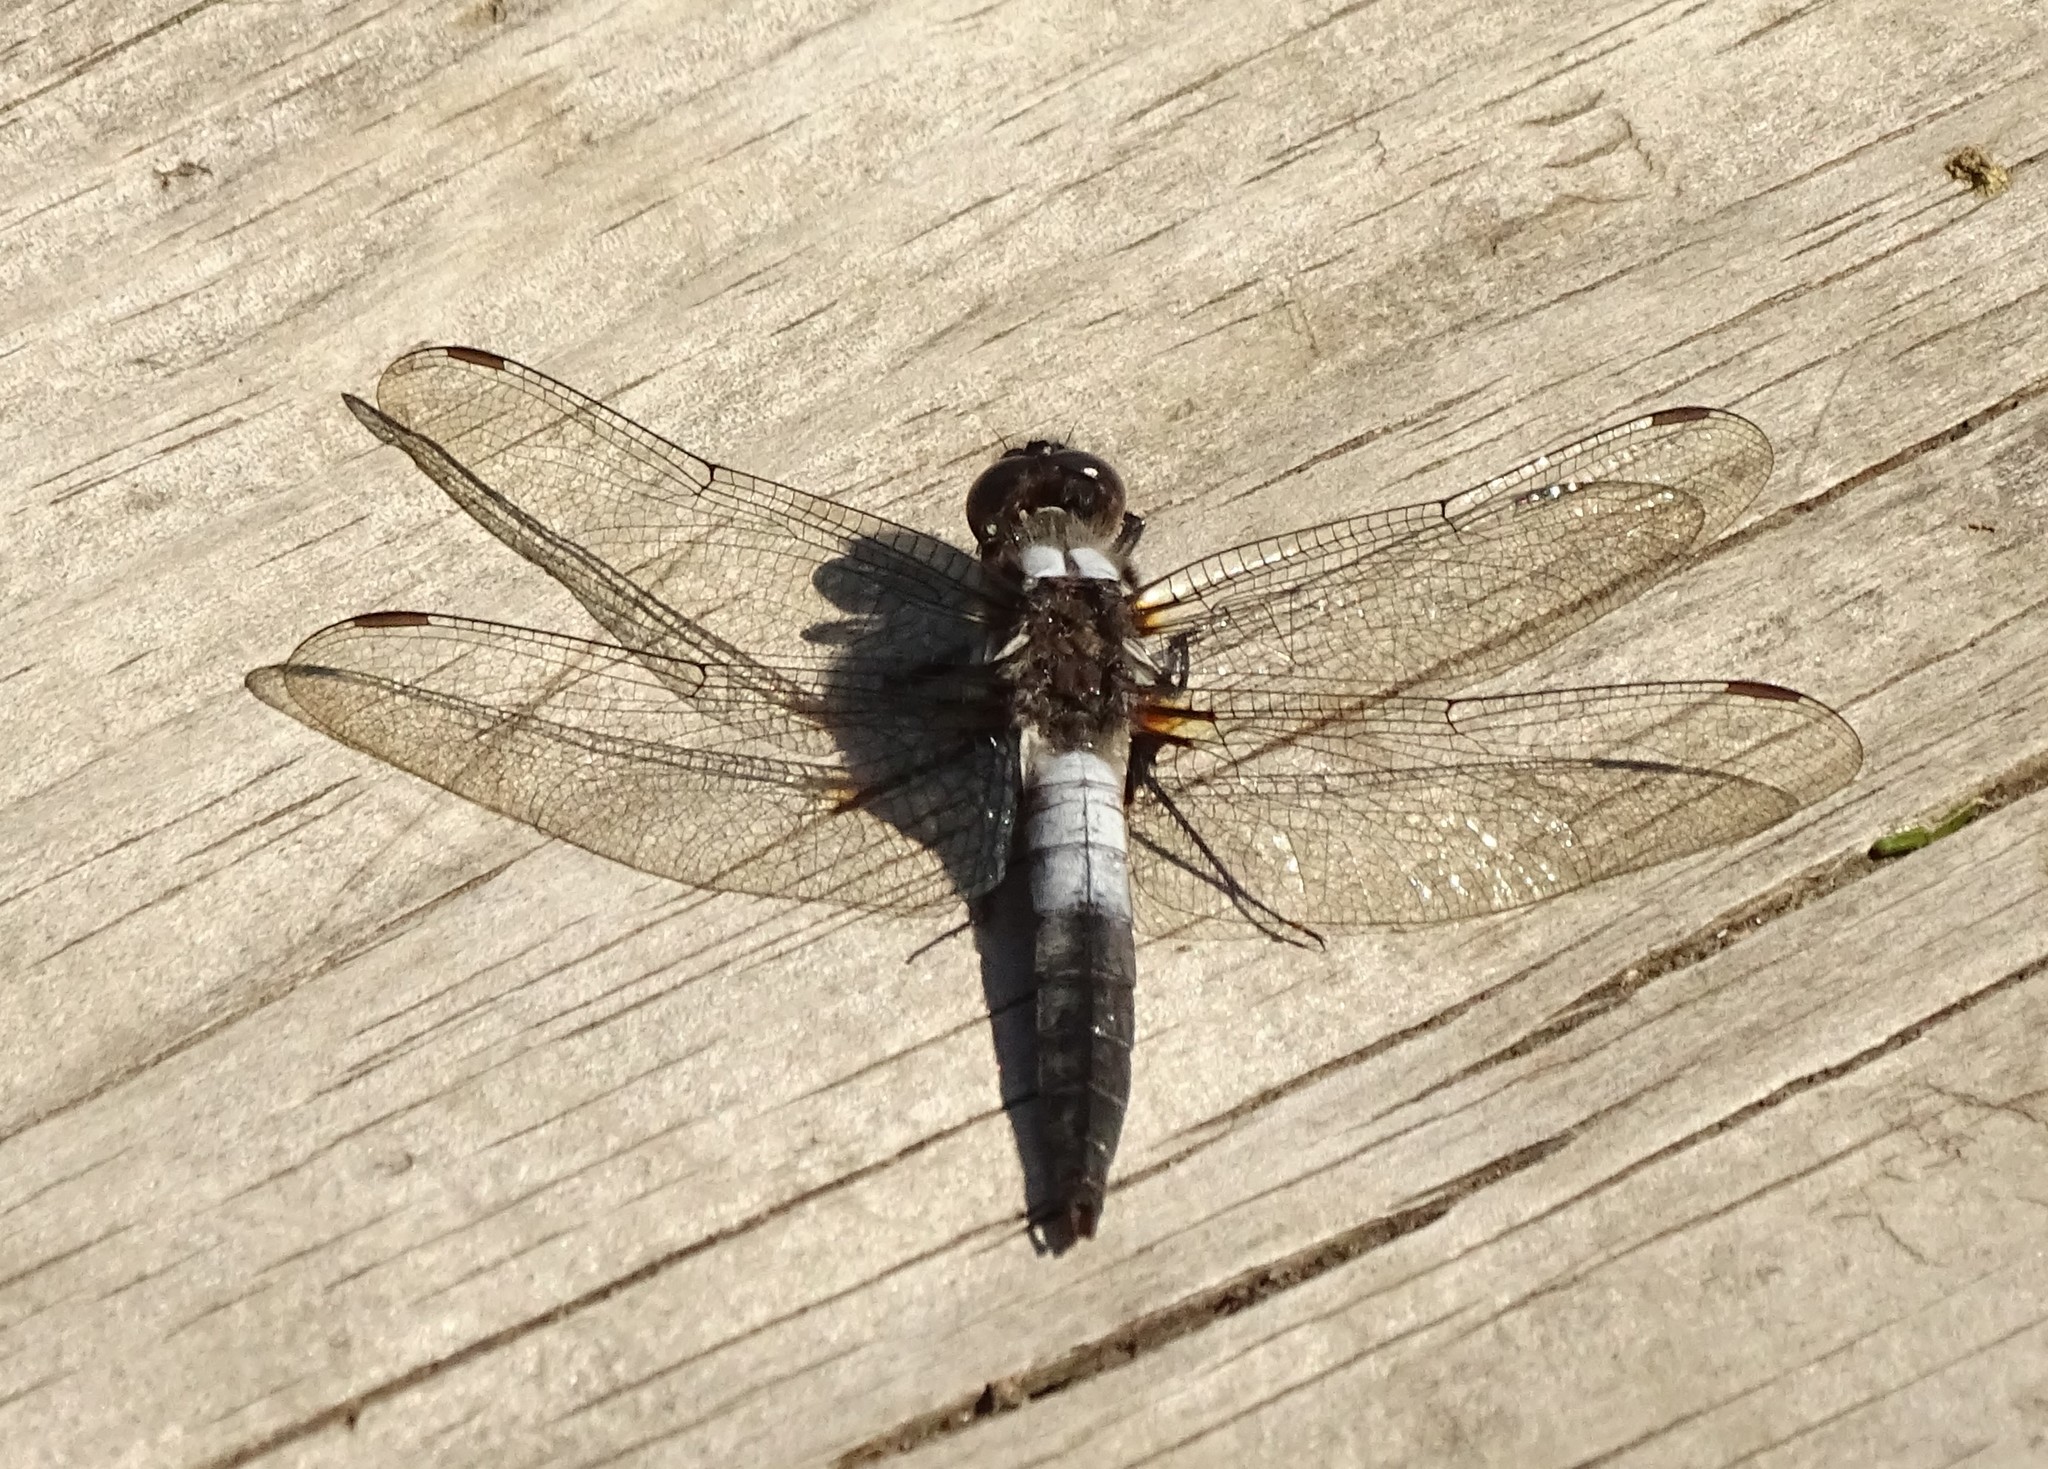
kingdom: Animalia
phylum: Arthropoda
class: Insecta
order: Odonata
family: Libellulidae
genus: Ladona
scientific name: Ladona julia
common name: Chalk-fronted corporal
